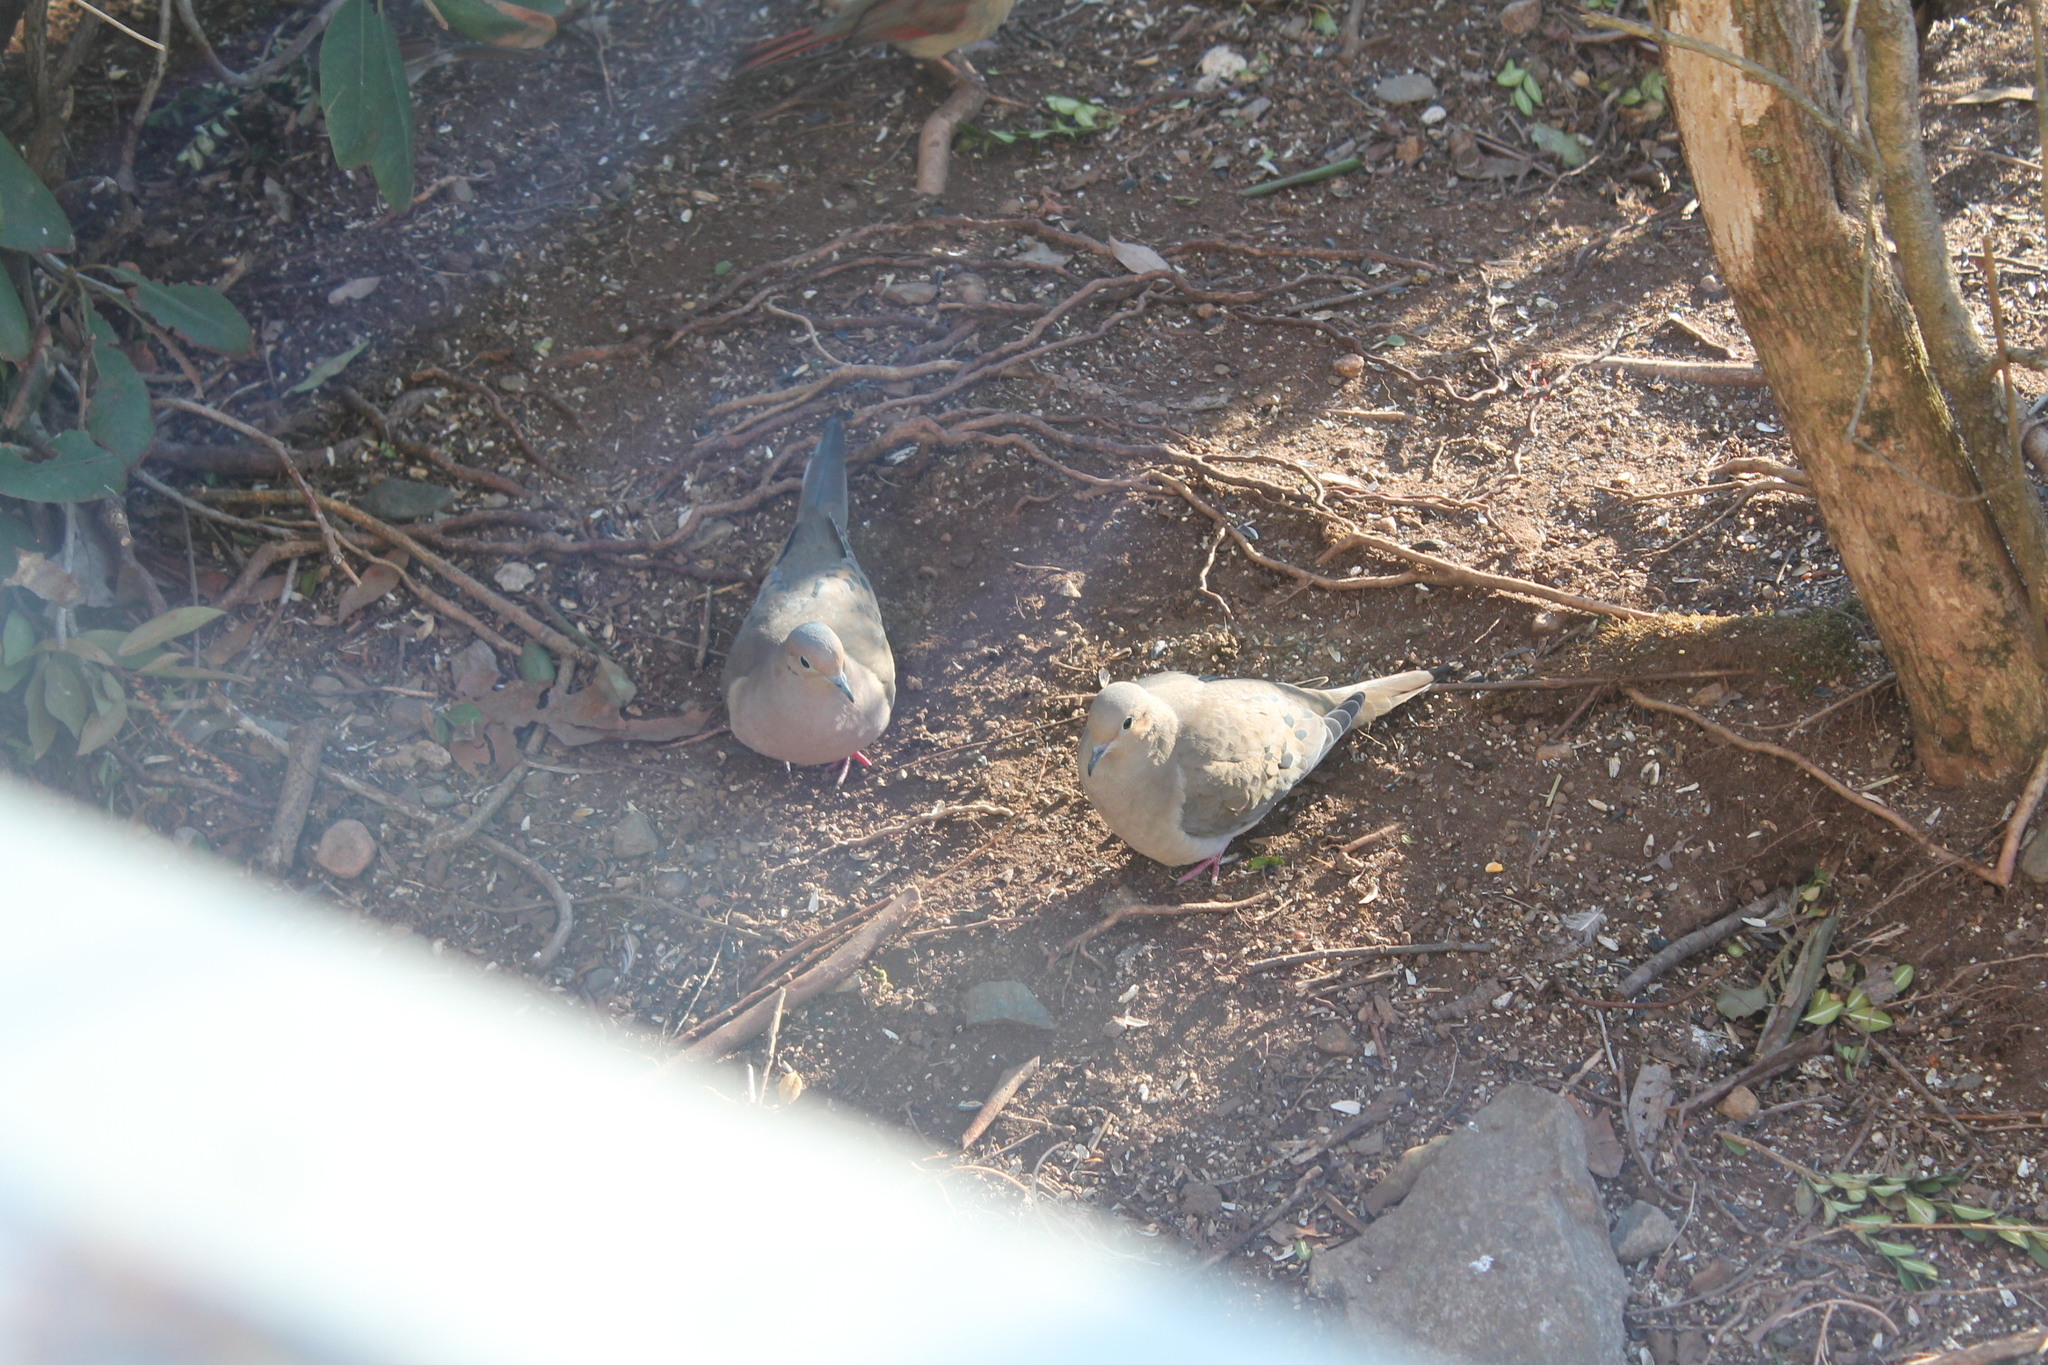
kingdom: Animalia
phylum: Chordata
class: Aves
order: Columbiformes
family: Columbidae
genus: Zenaida
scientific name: Zenaida macroura
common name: Mourning dove
